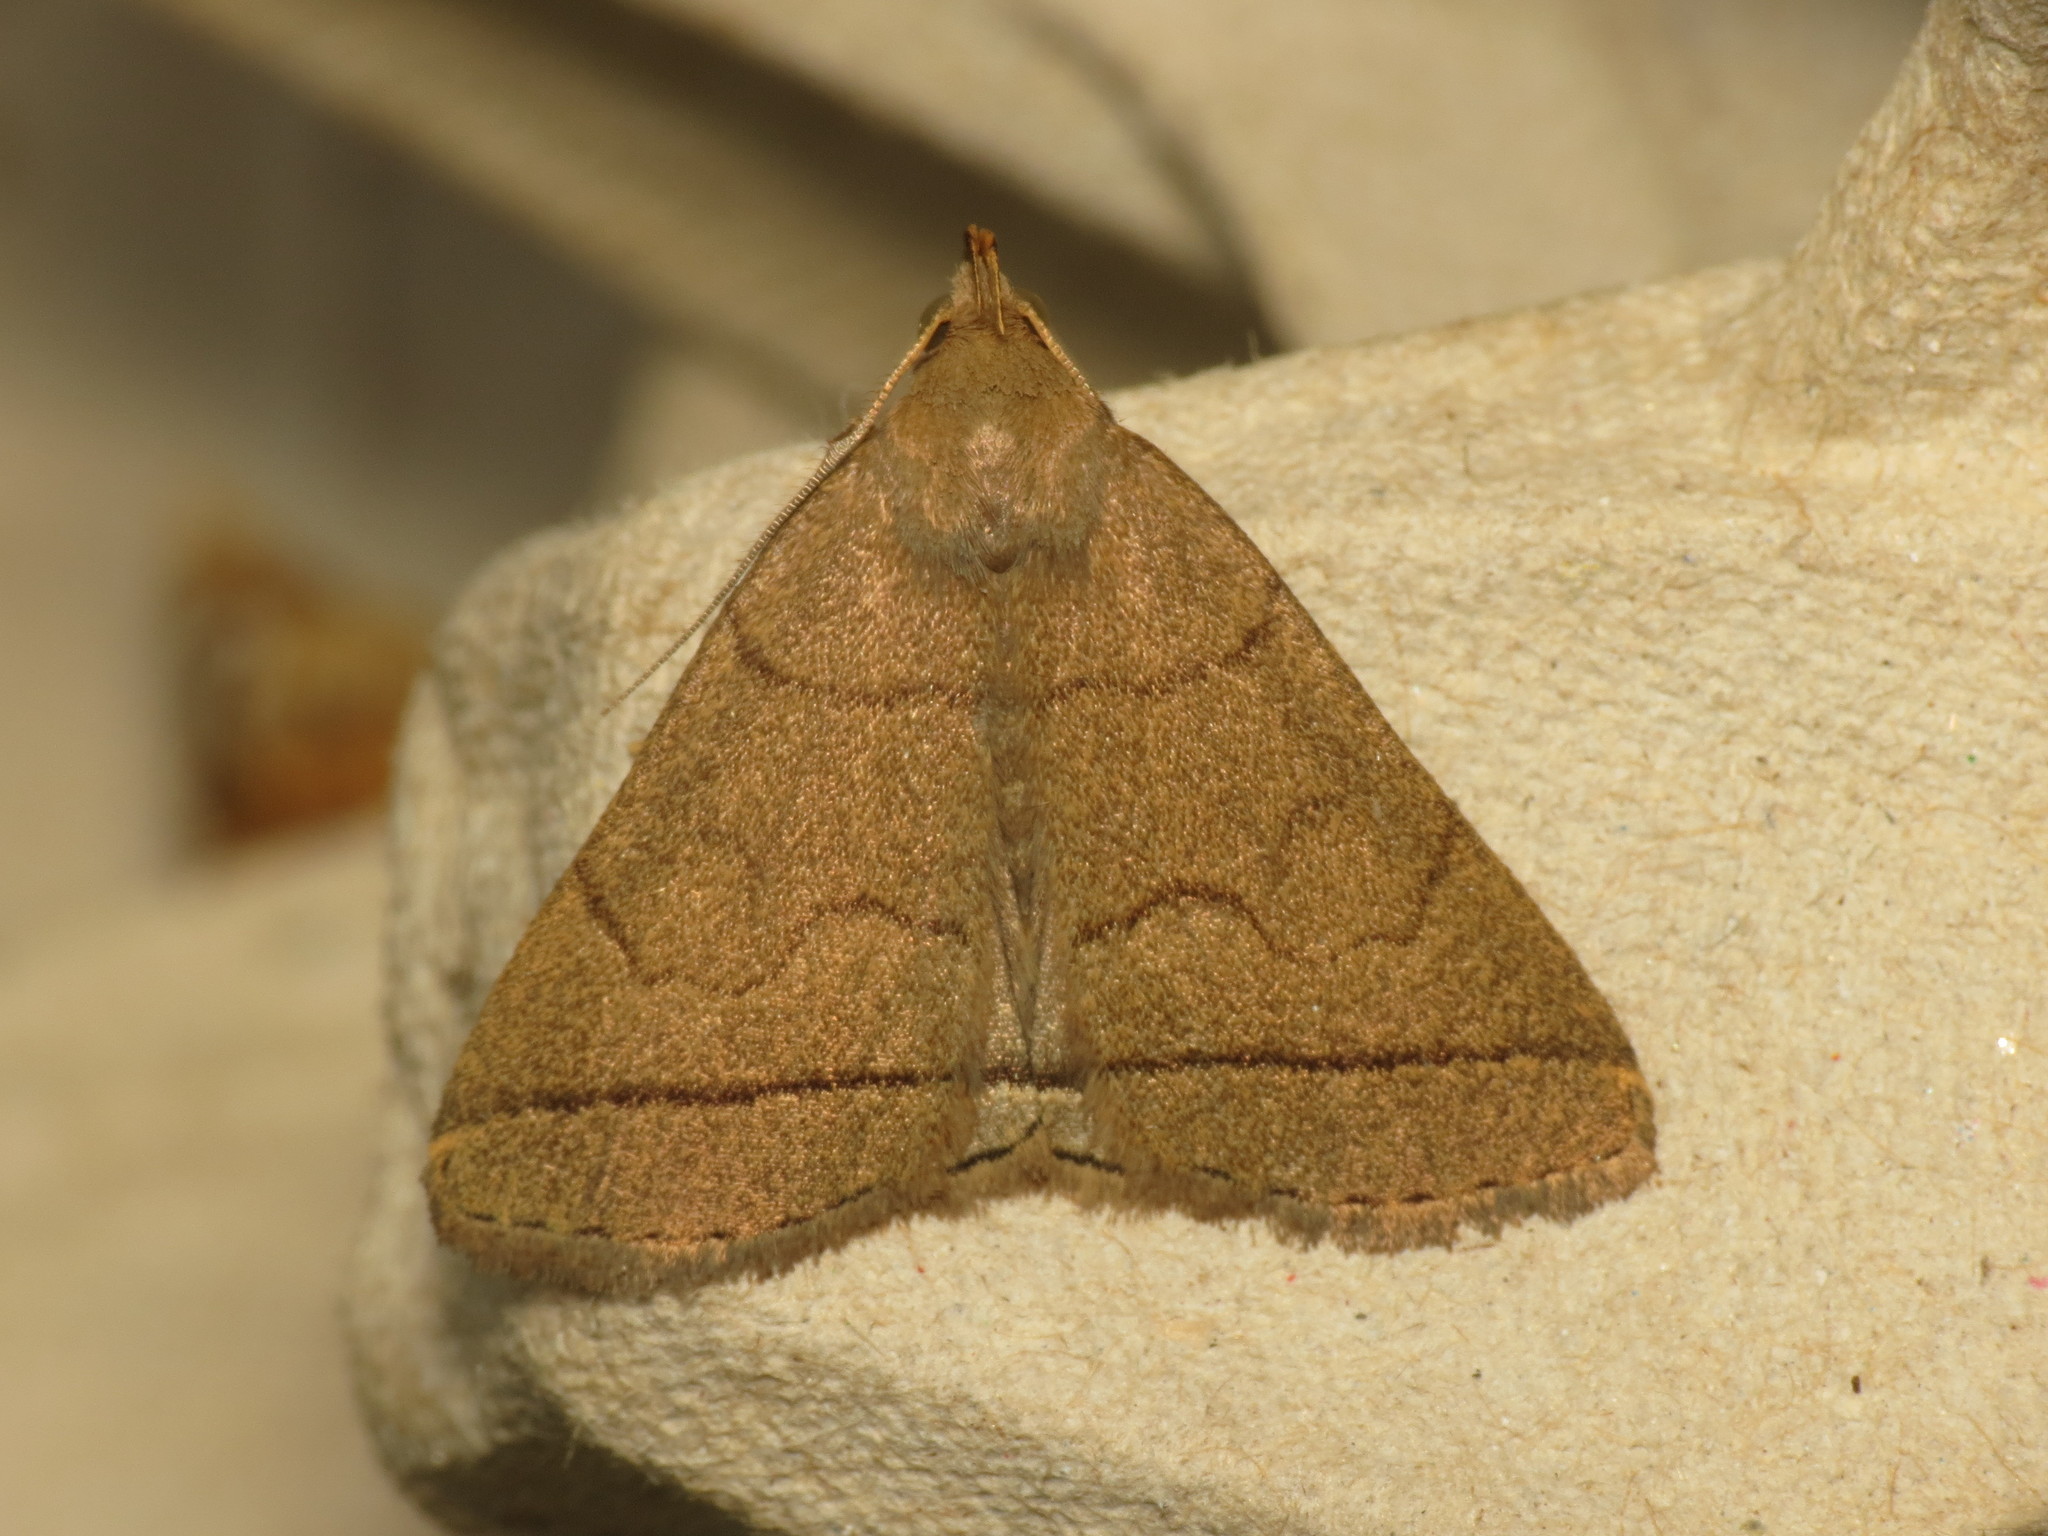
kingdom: Animalia
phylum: Arthropoda
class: Insecta
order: Lepidoptera
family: Erebidae
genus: Herminia
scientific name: Herminia tarsipennalis
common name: Fan-foot
